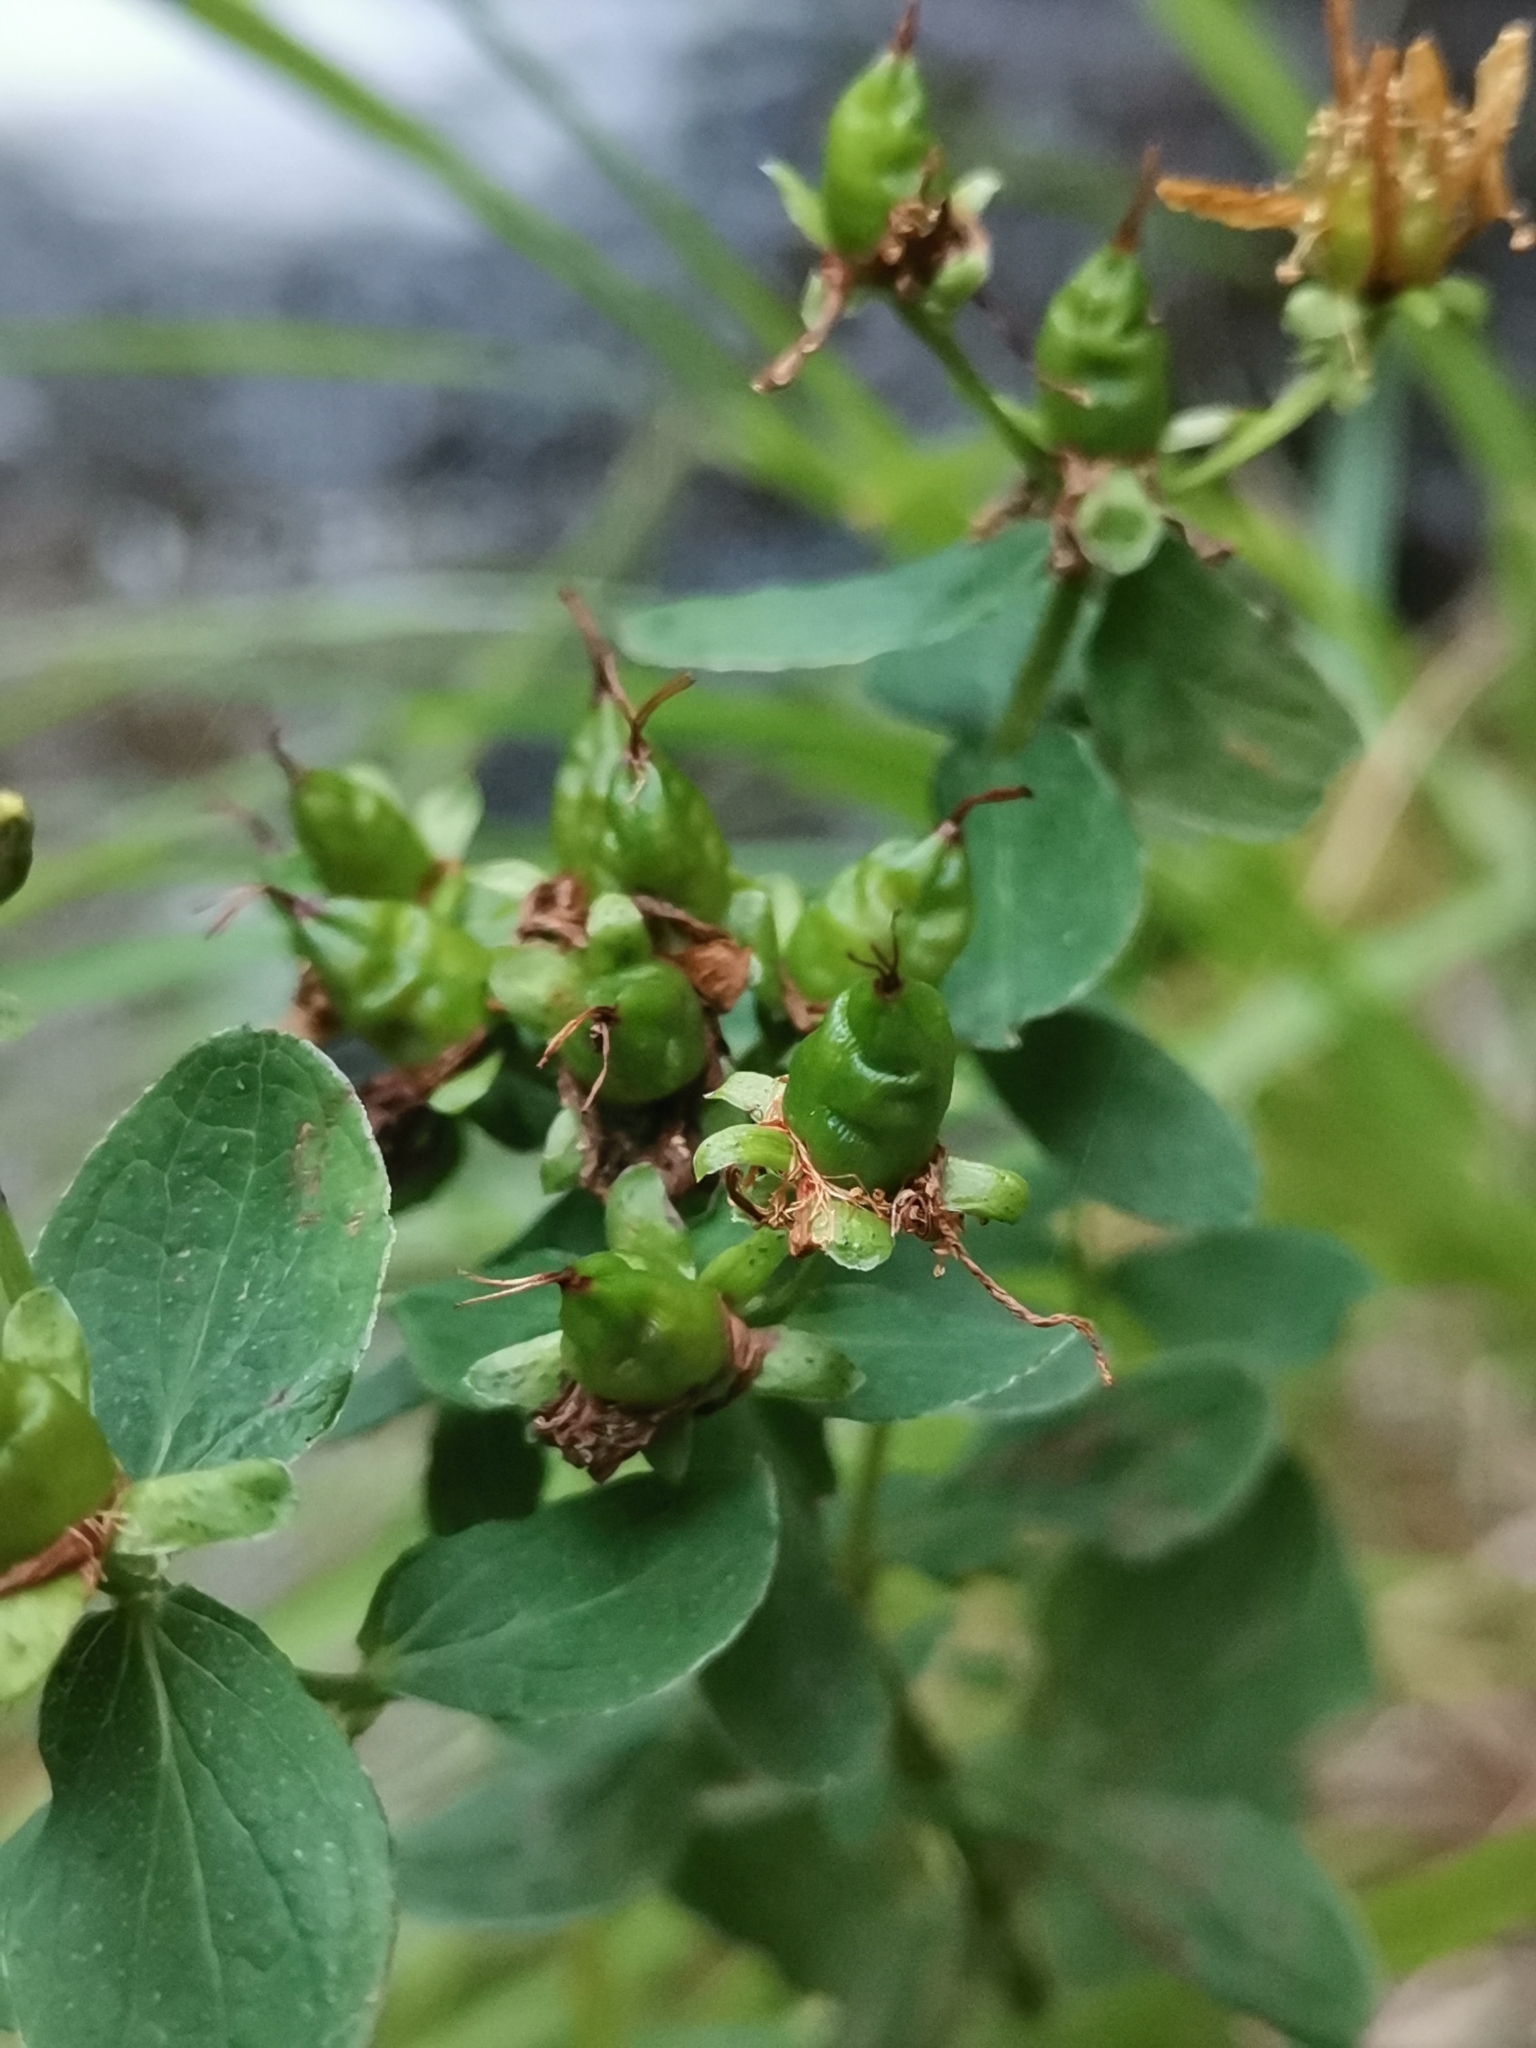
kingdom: Plantae
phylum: Tracheophyta
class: Magnoliopsida
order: Malpighiales
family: Hypericaceae
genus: Hypericum
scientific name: Hypericum maculatum
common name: Imperforate st. john's-wort
